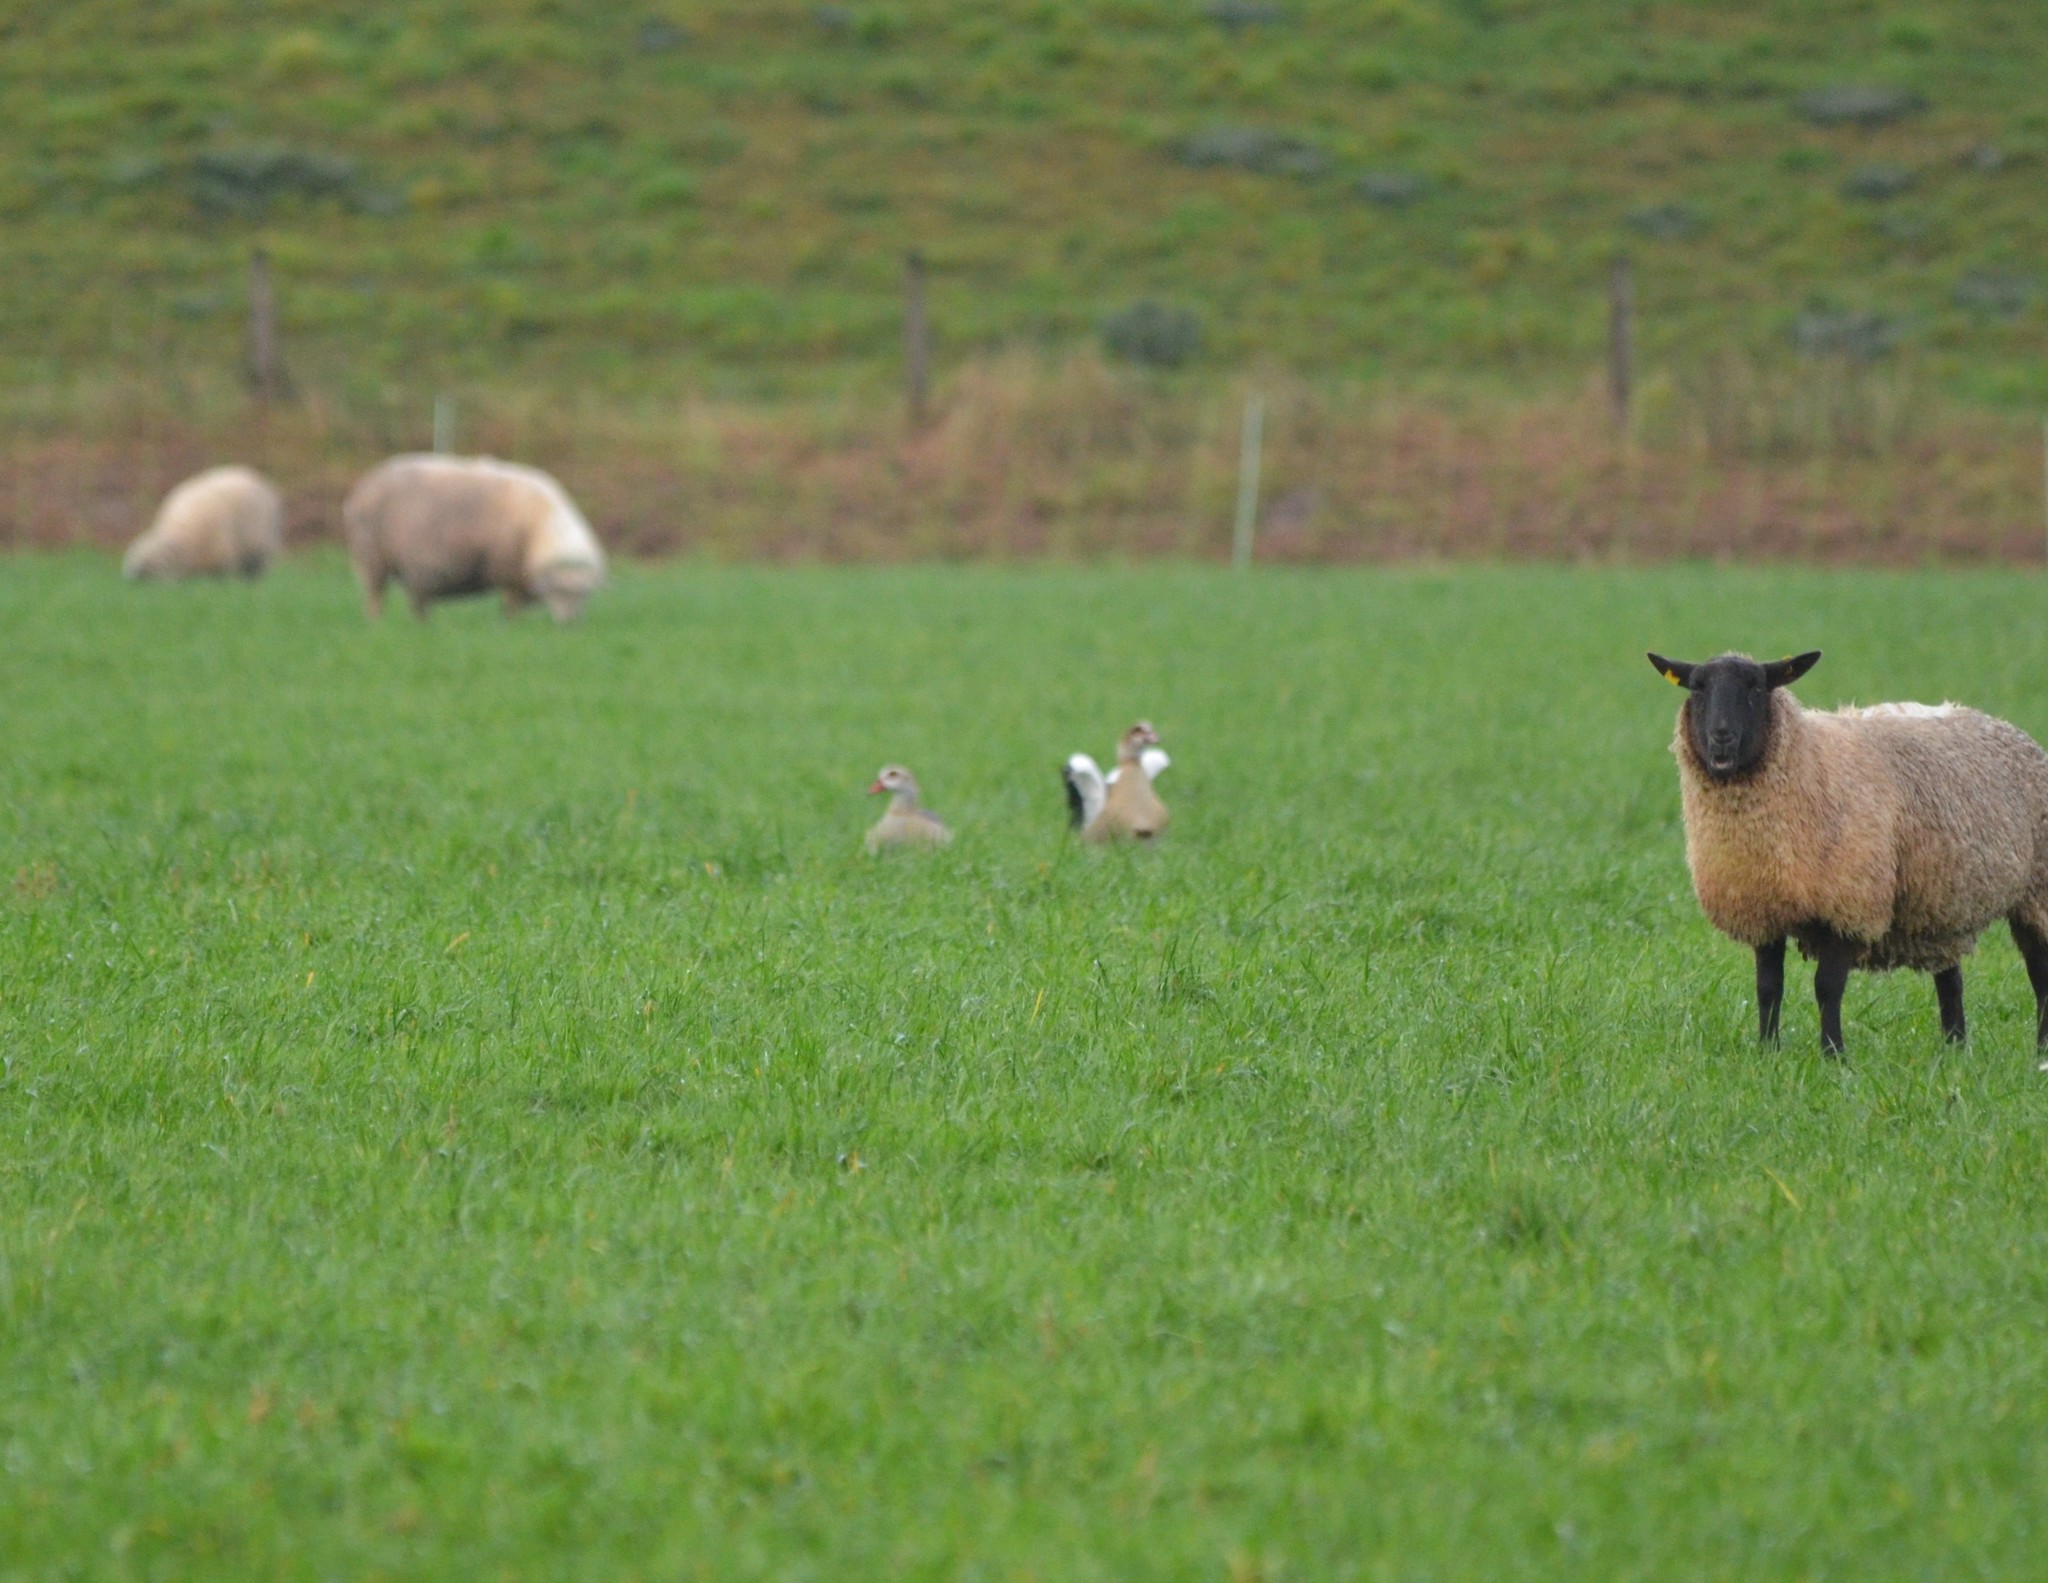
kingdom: Animalia
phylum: Chordata
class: Aves
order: Anseriformes
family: Anatidae
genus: Alopochen
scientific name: Alopochen aegyptiaca
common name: Egyptian goose
